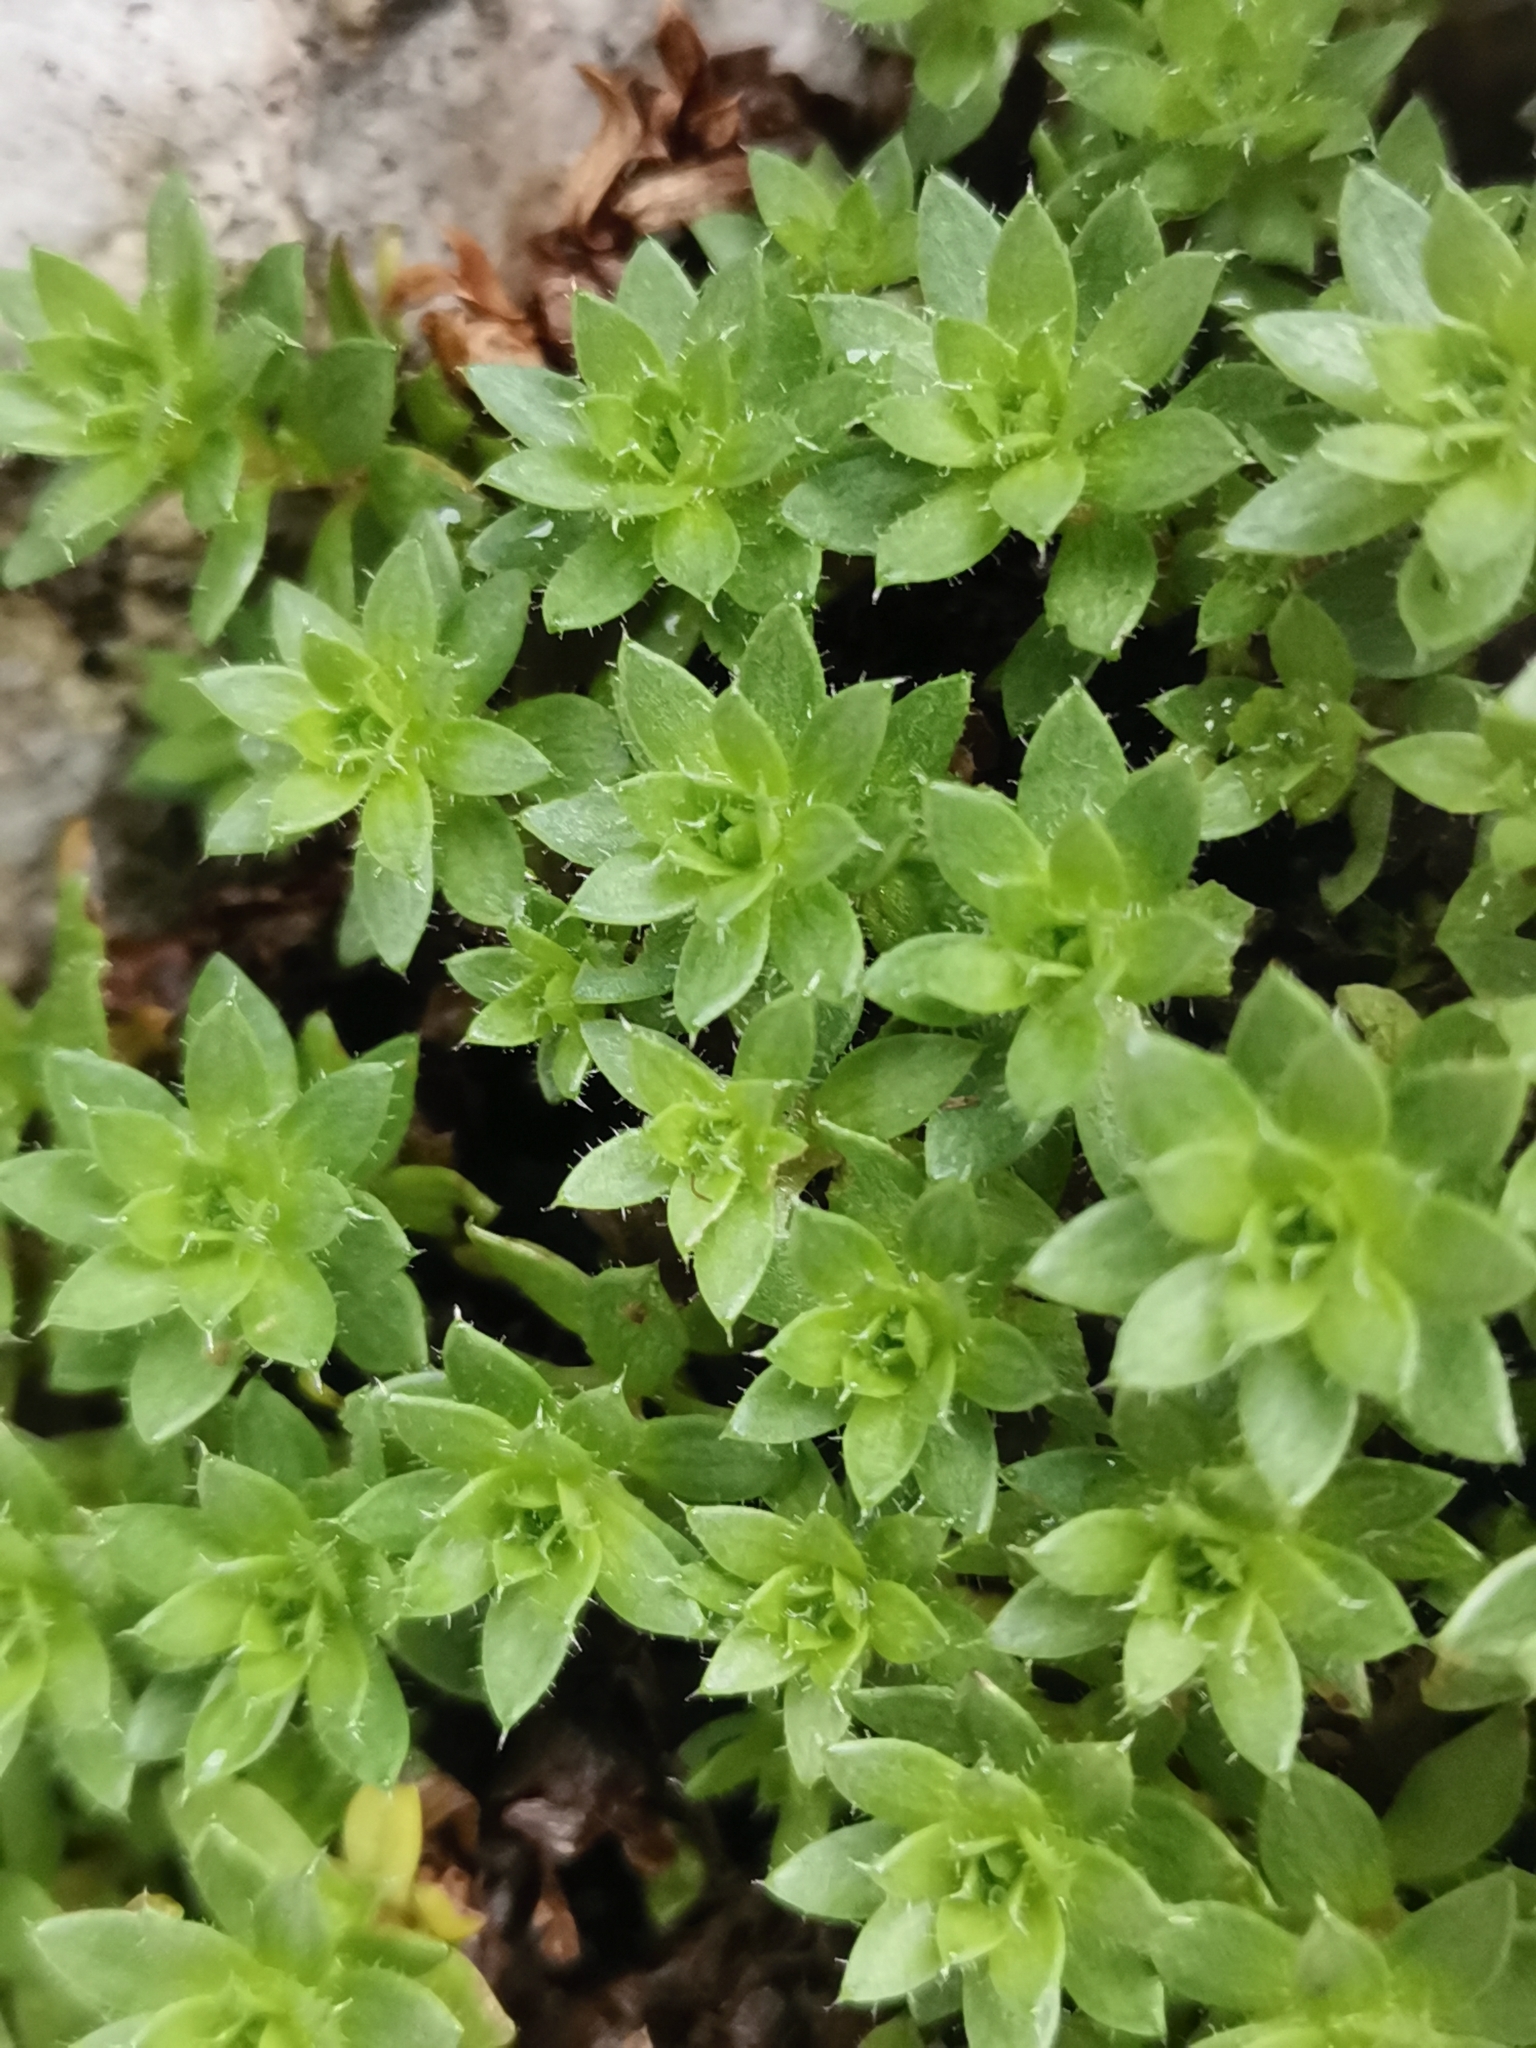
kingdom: Plantae
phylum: Tracheophyta
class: Magnoliopsida
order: Saxifragales
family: Saxifragaceae
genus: Saxifraga
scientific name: Saxifraga sedoides
